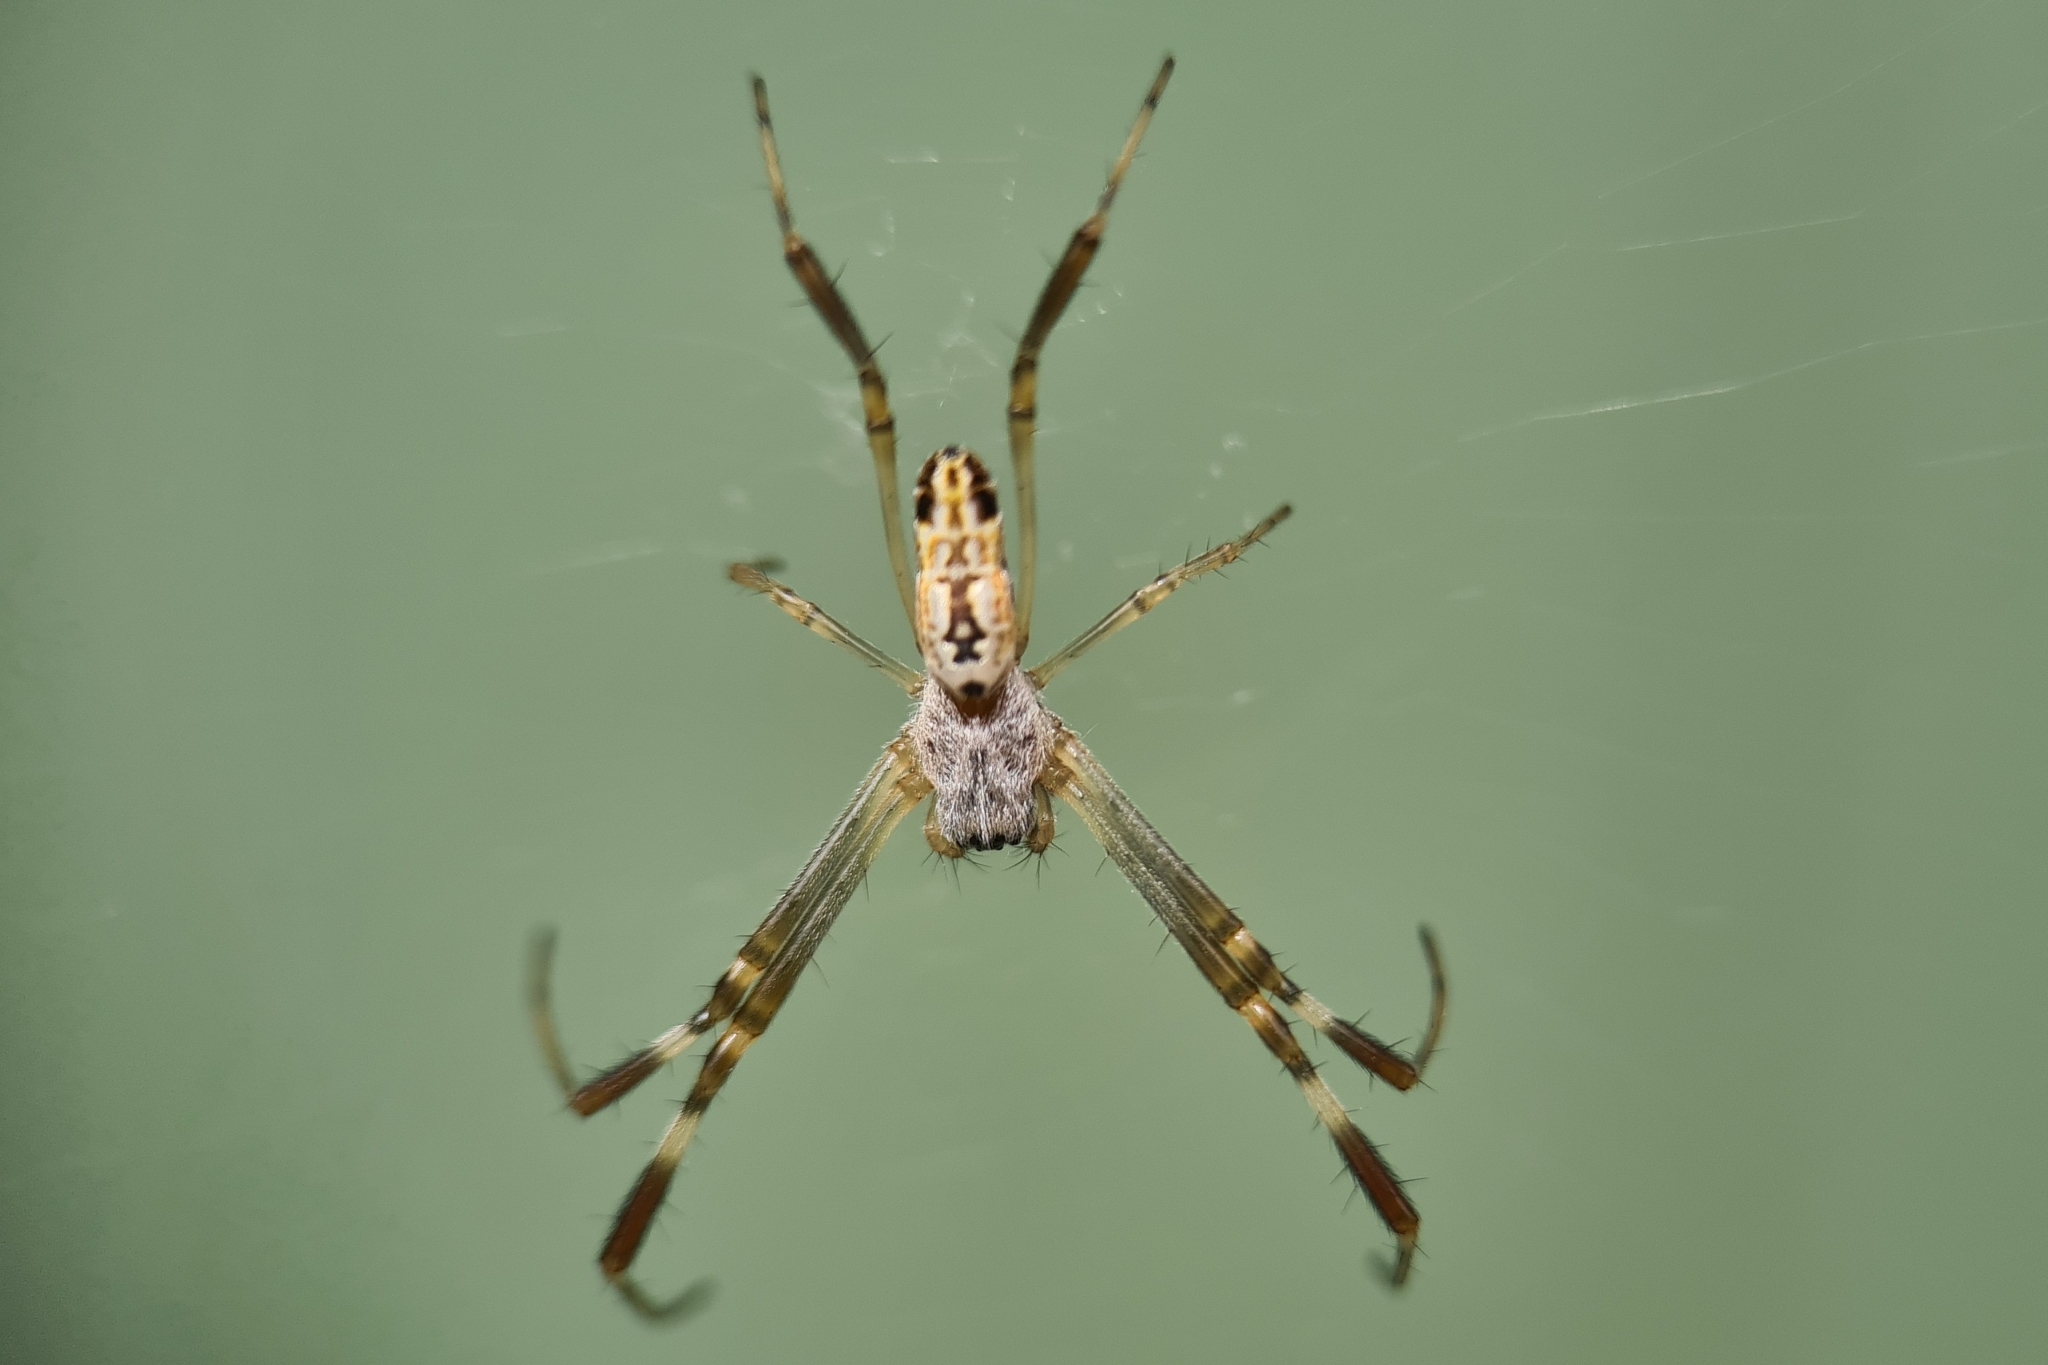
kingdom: Animalia
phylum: Arthropoda
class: Arachnida
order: Araneae
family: Araneidae
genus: Trichonephila
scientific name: Trichonephila edulis
